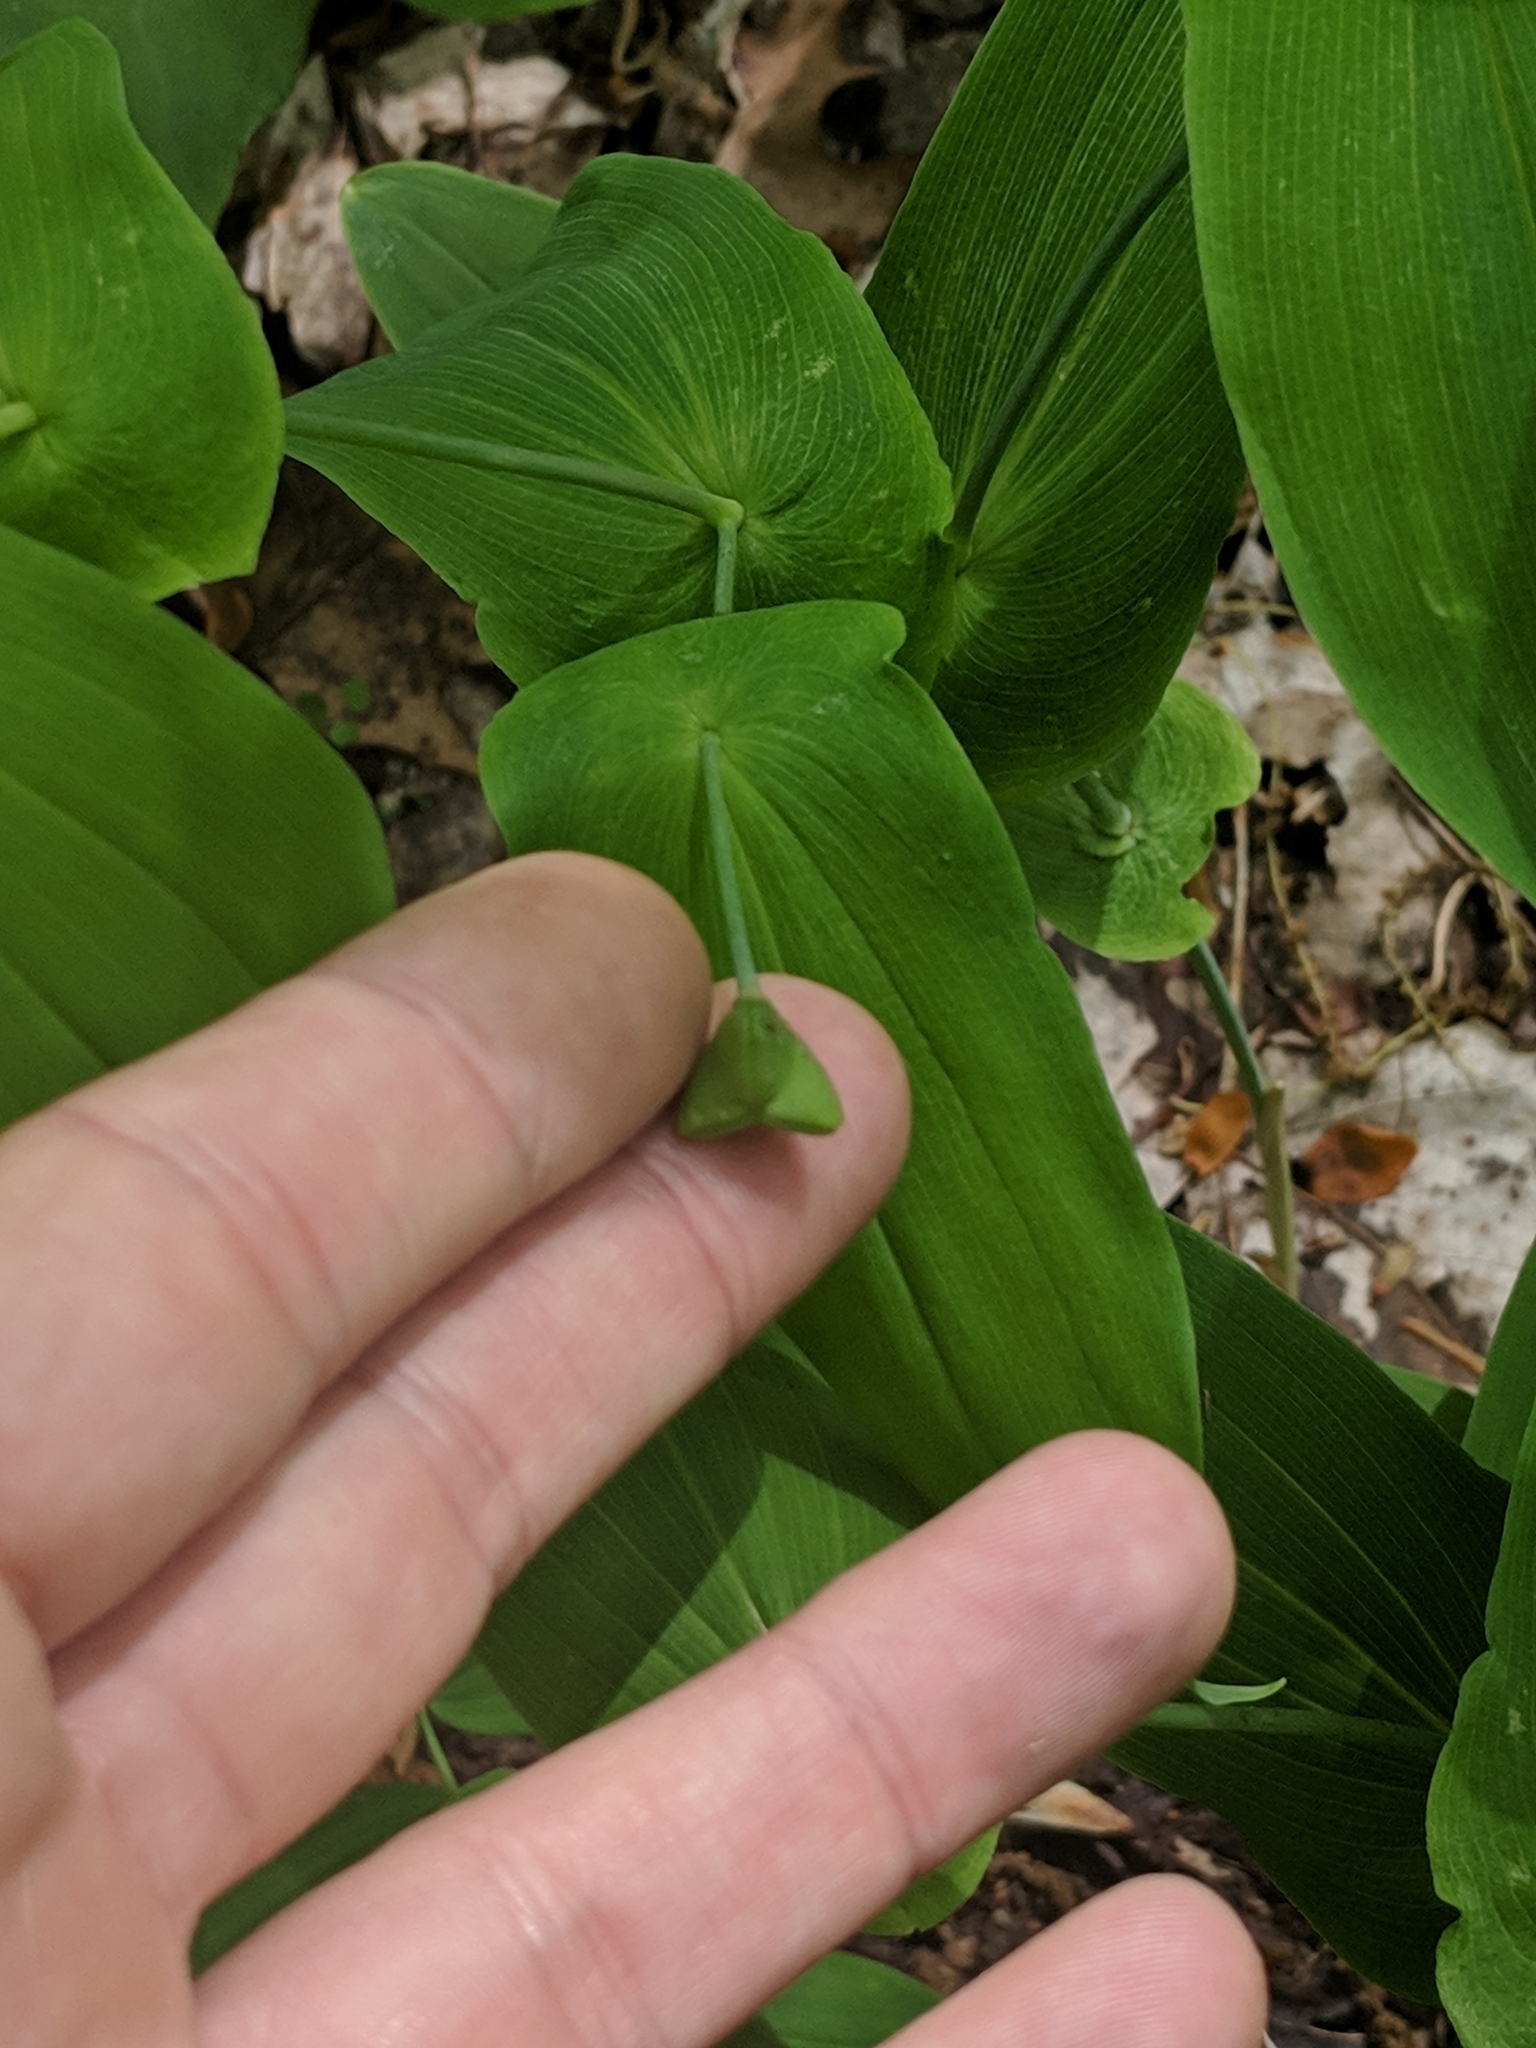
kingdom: Plantae
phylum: Tracheophyta
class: Liliopsida
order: Liliales
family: Colchicaceae
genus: Uvularia
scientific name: Uvularia grandiflora
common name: Bellwort
